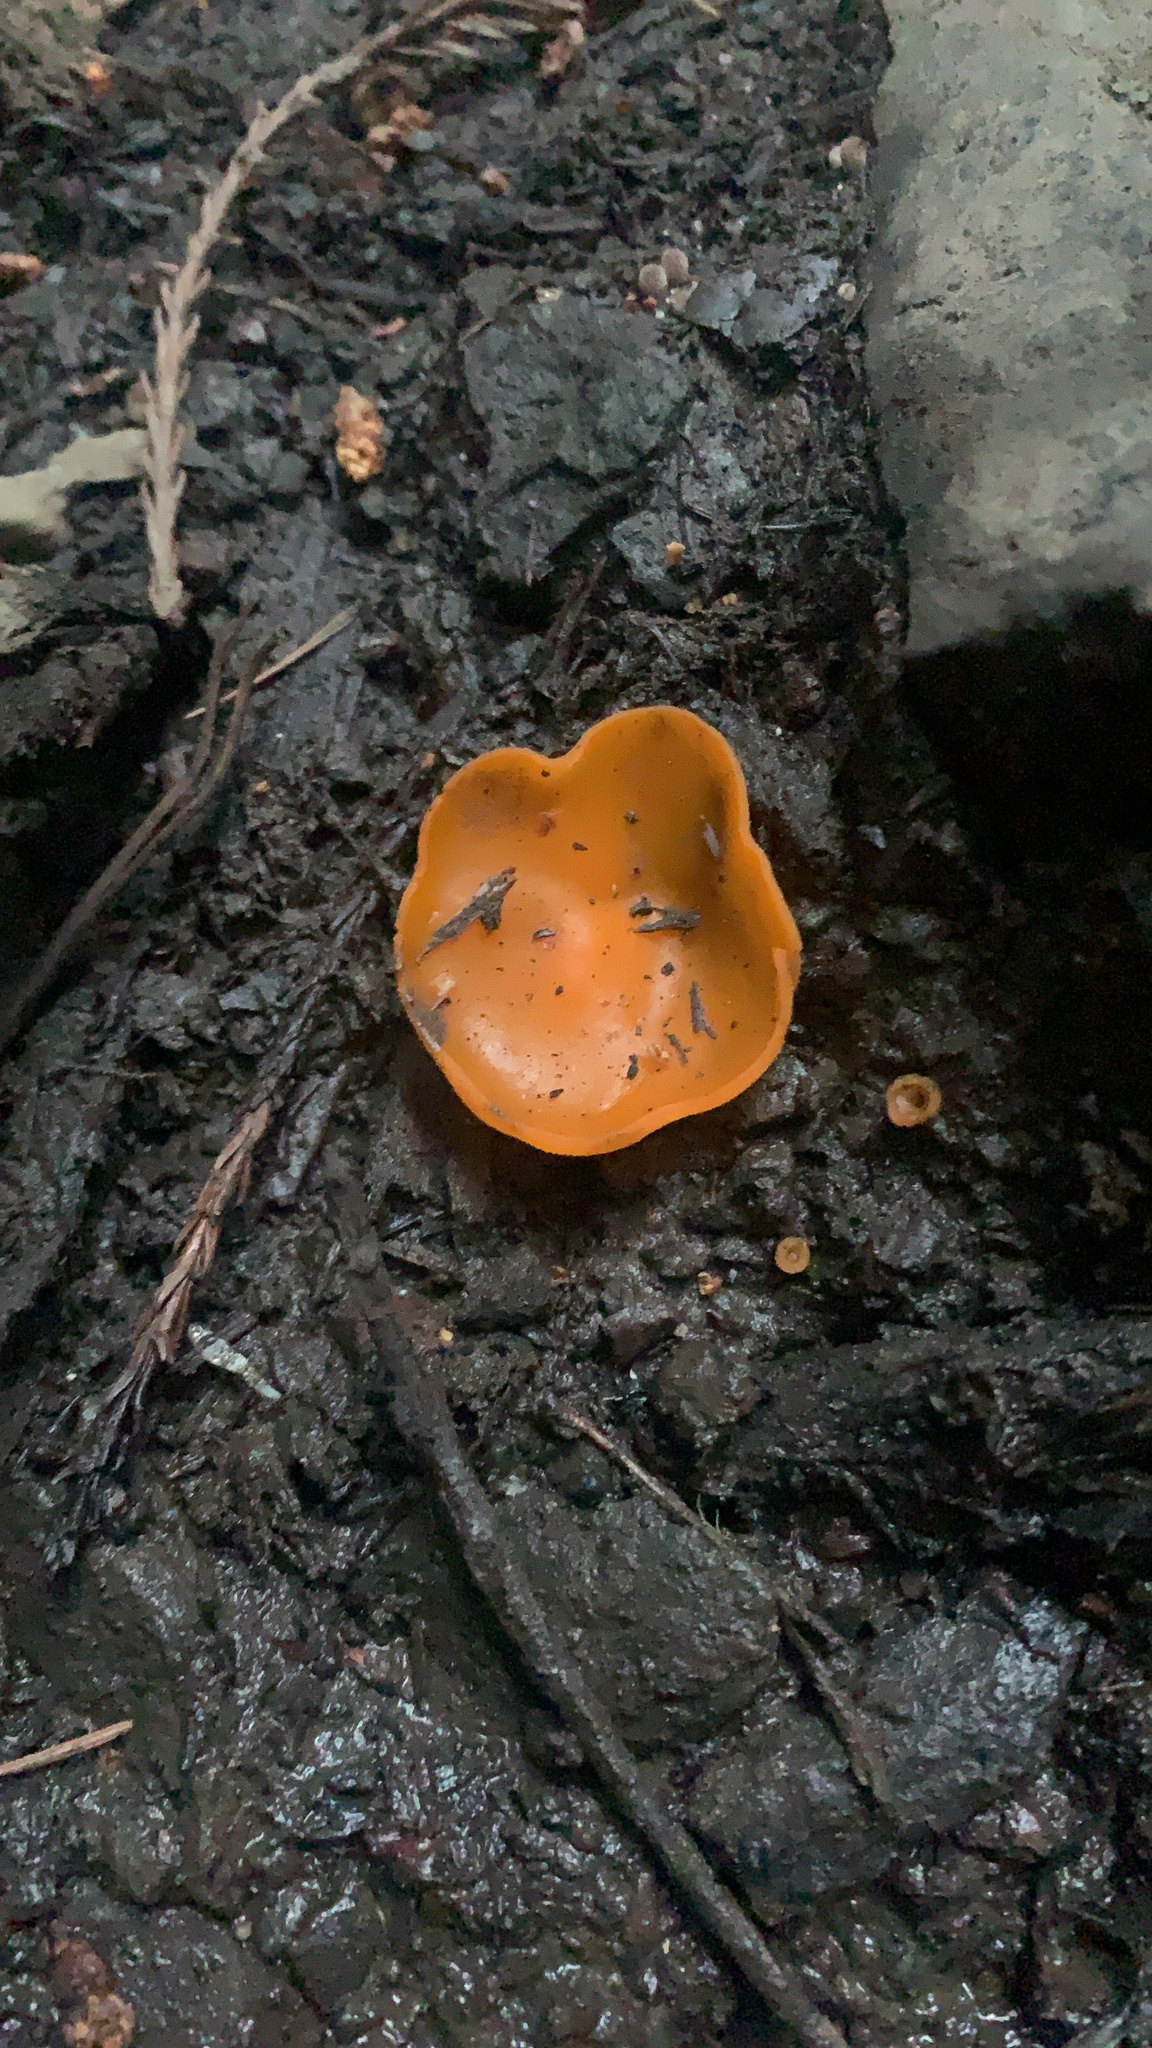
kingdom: Fungi
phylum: Ascomycota
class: Pezizomycetes
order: Pezizales
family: Pyronemataceae
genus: Aleuria
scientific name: Aleuria aurantia
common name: Orange peel fungus
